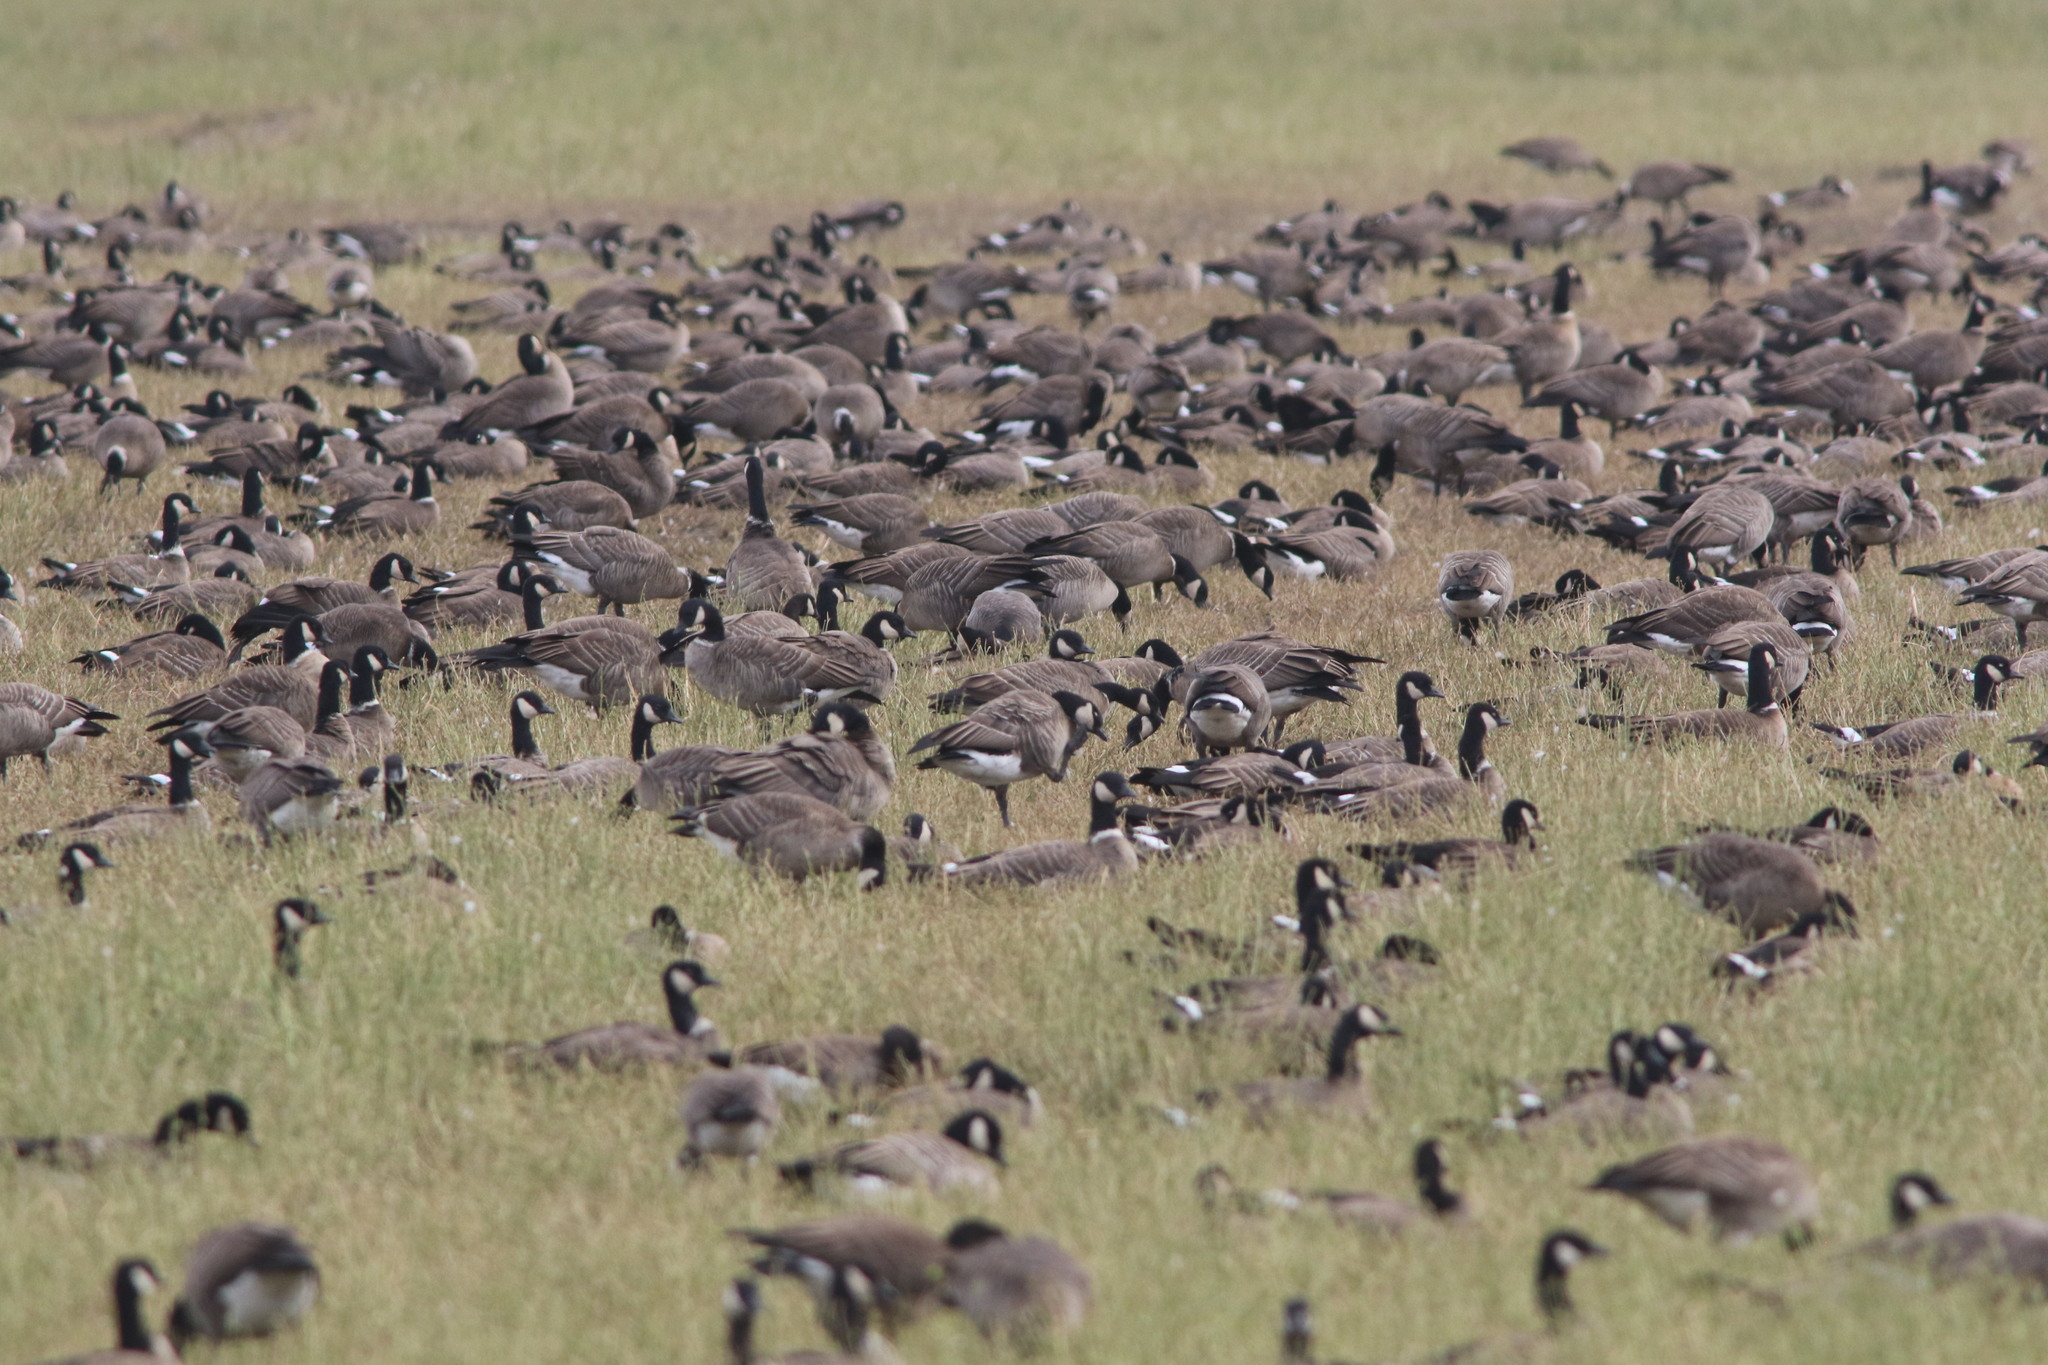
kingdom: Animalia
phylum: Chordata
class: Aves
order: Anseriformes
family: Anatidae
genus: Branta
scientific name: Branta hutchinsii
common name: Cackling goose
